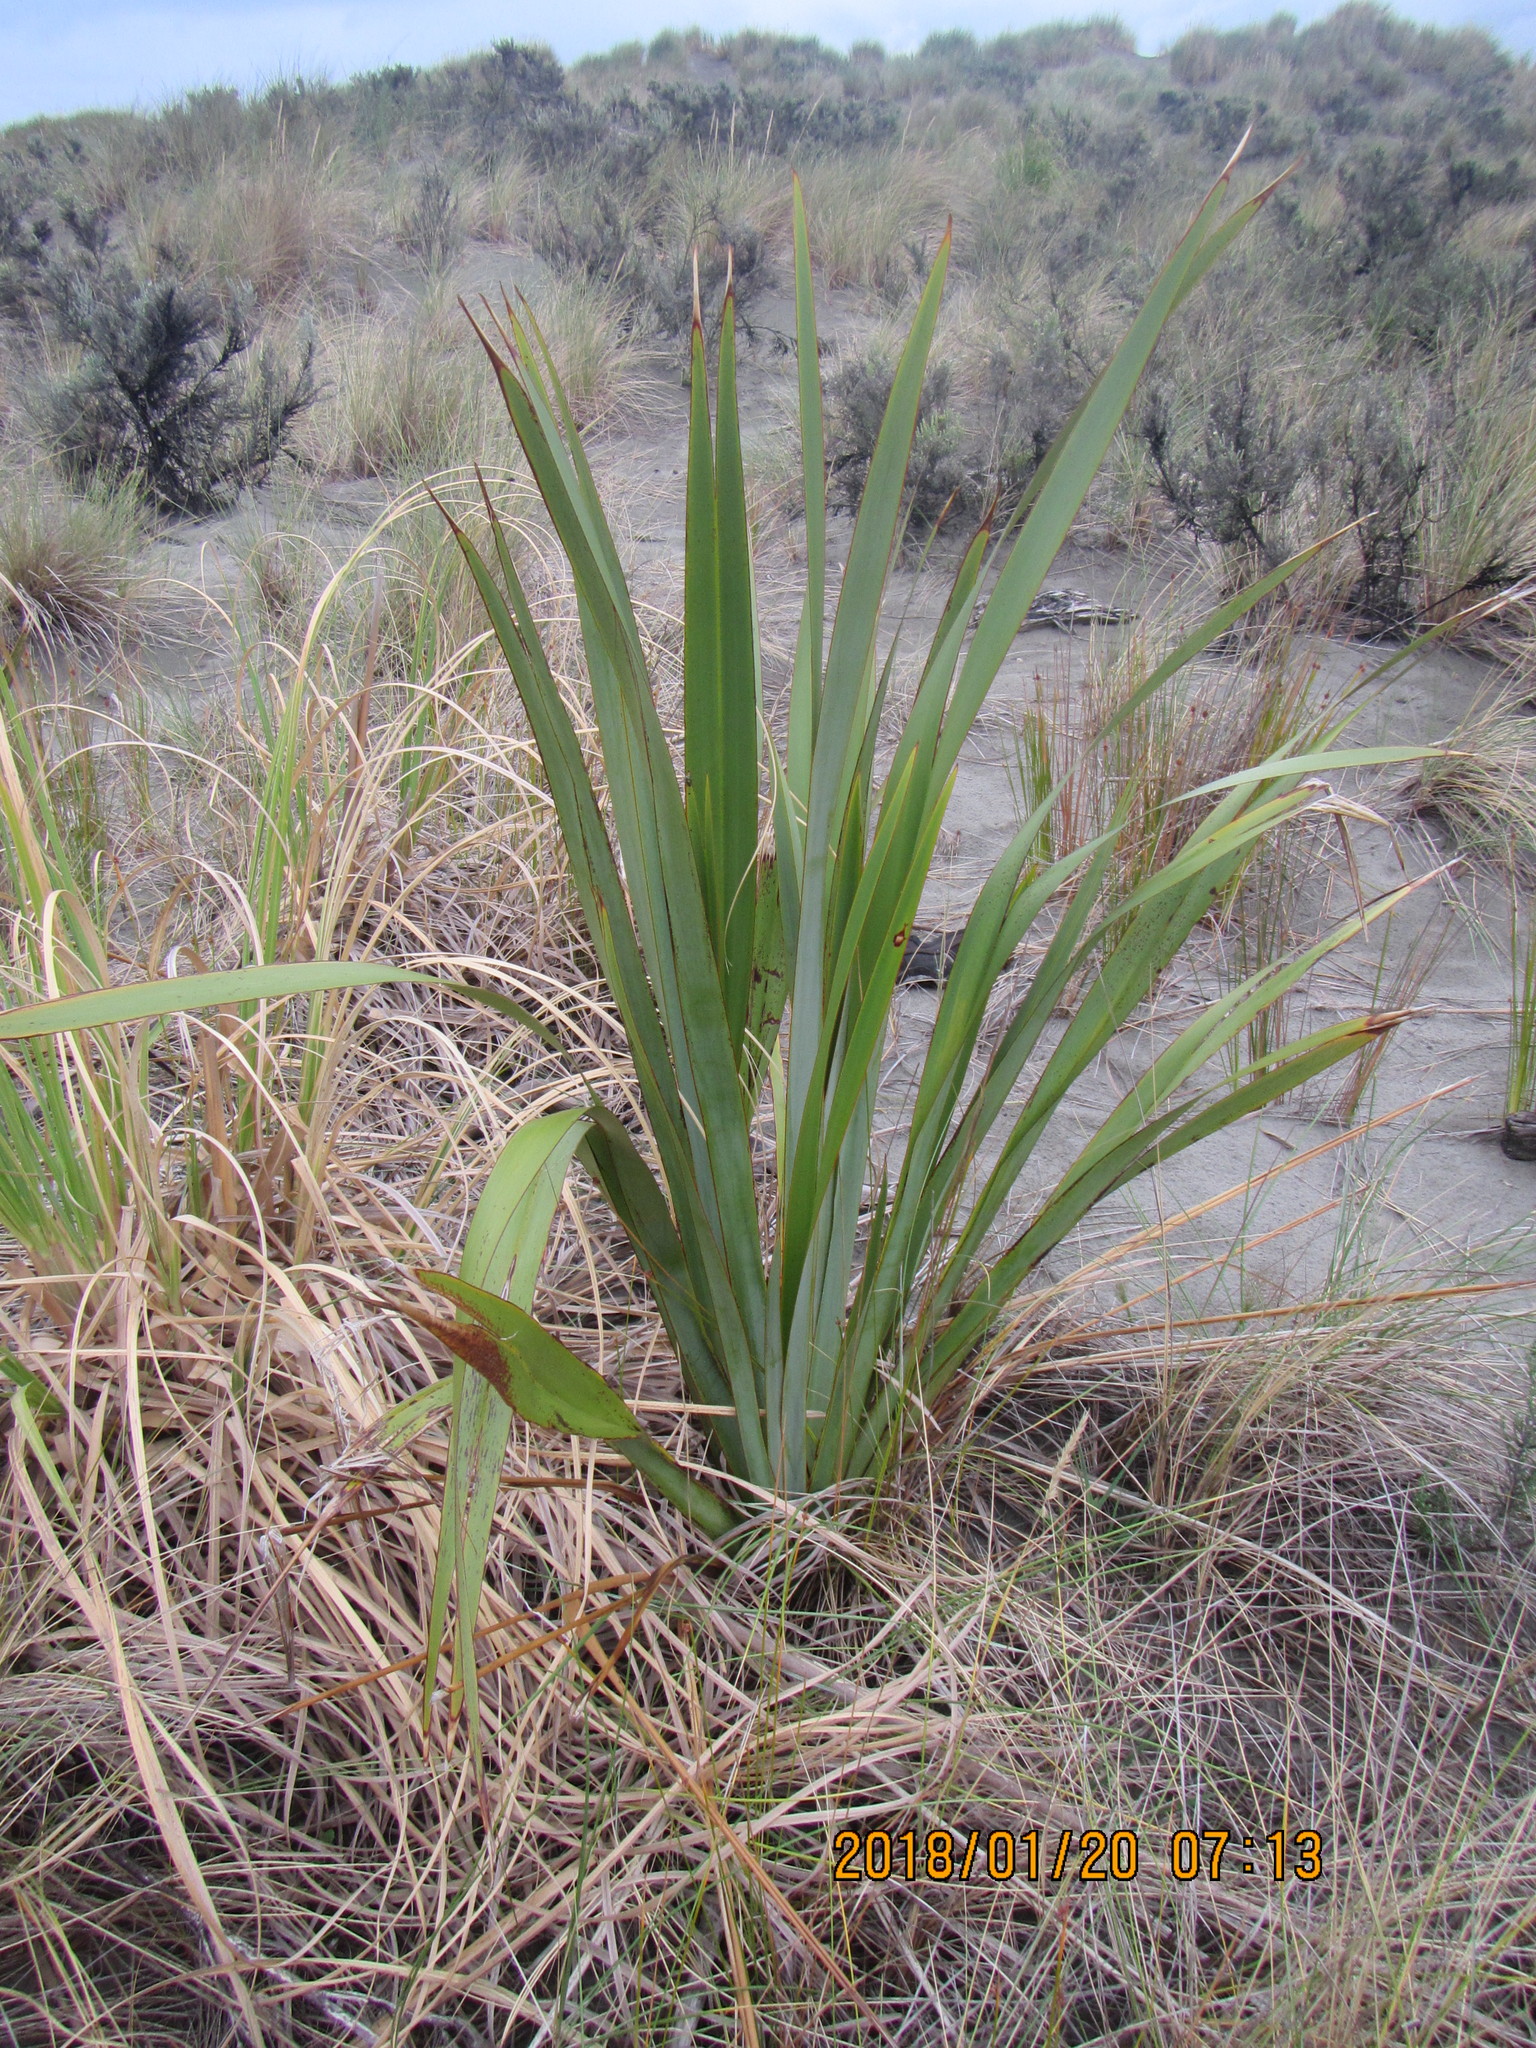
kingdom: Plantae
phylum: Tracheophyta
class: Liliopsida
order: Asparagales
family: Asphodelaceae
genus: Phormium
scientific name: Phormium tenax
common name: New zealand flax
